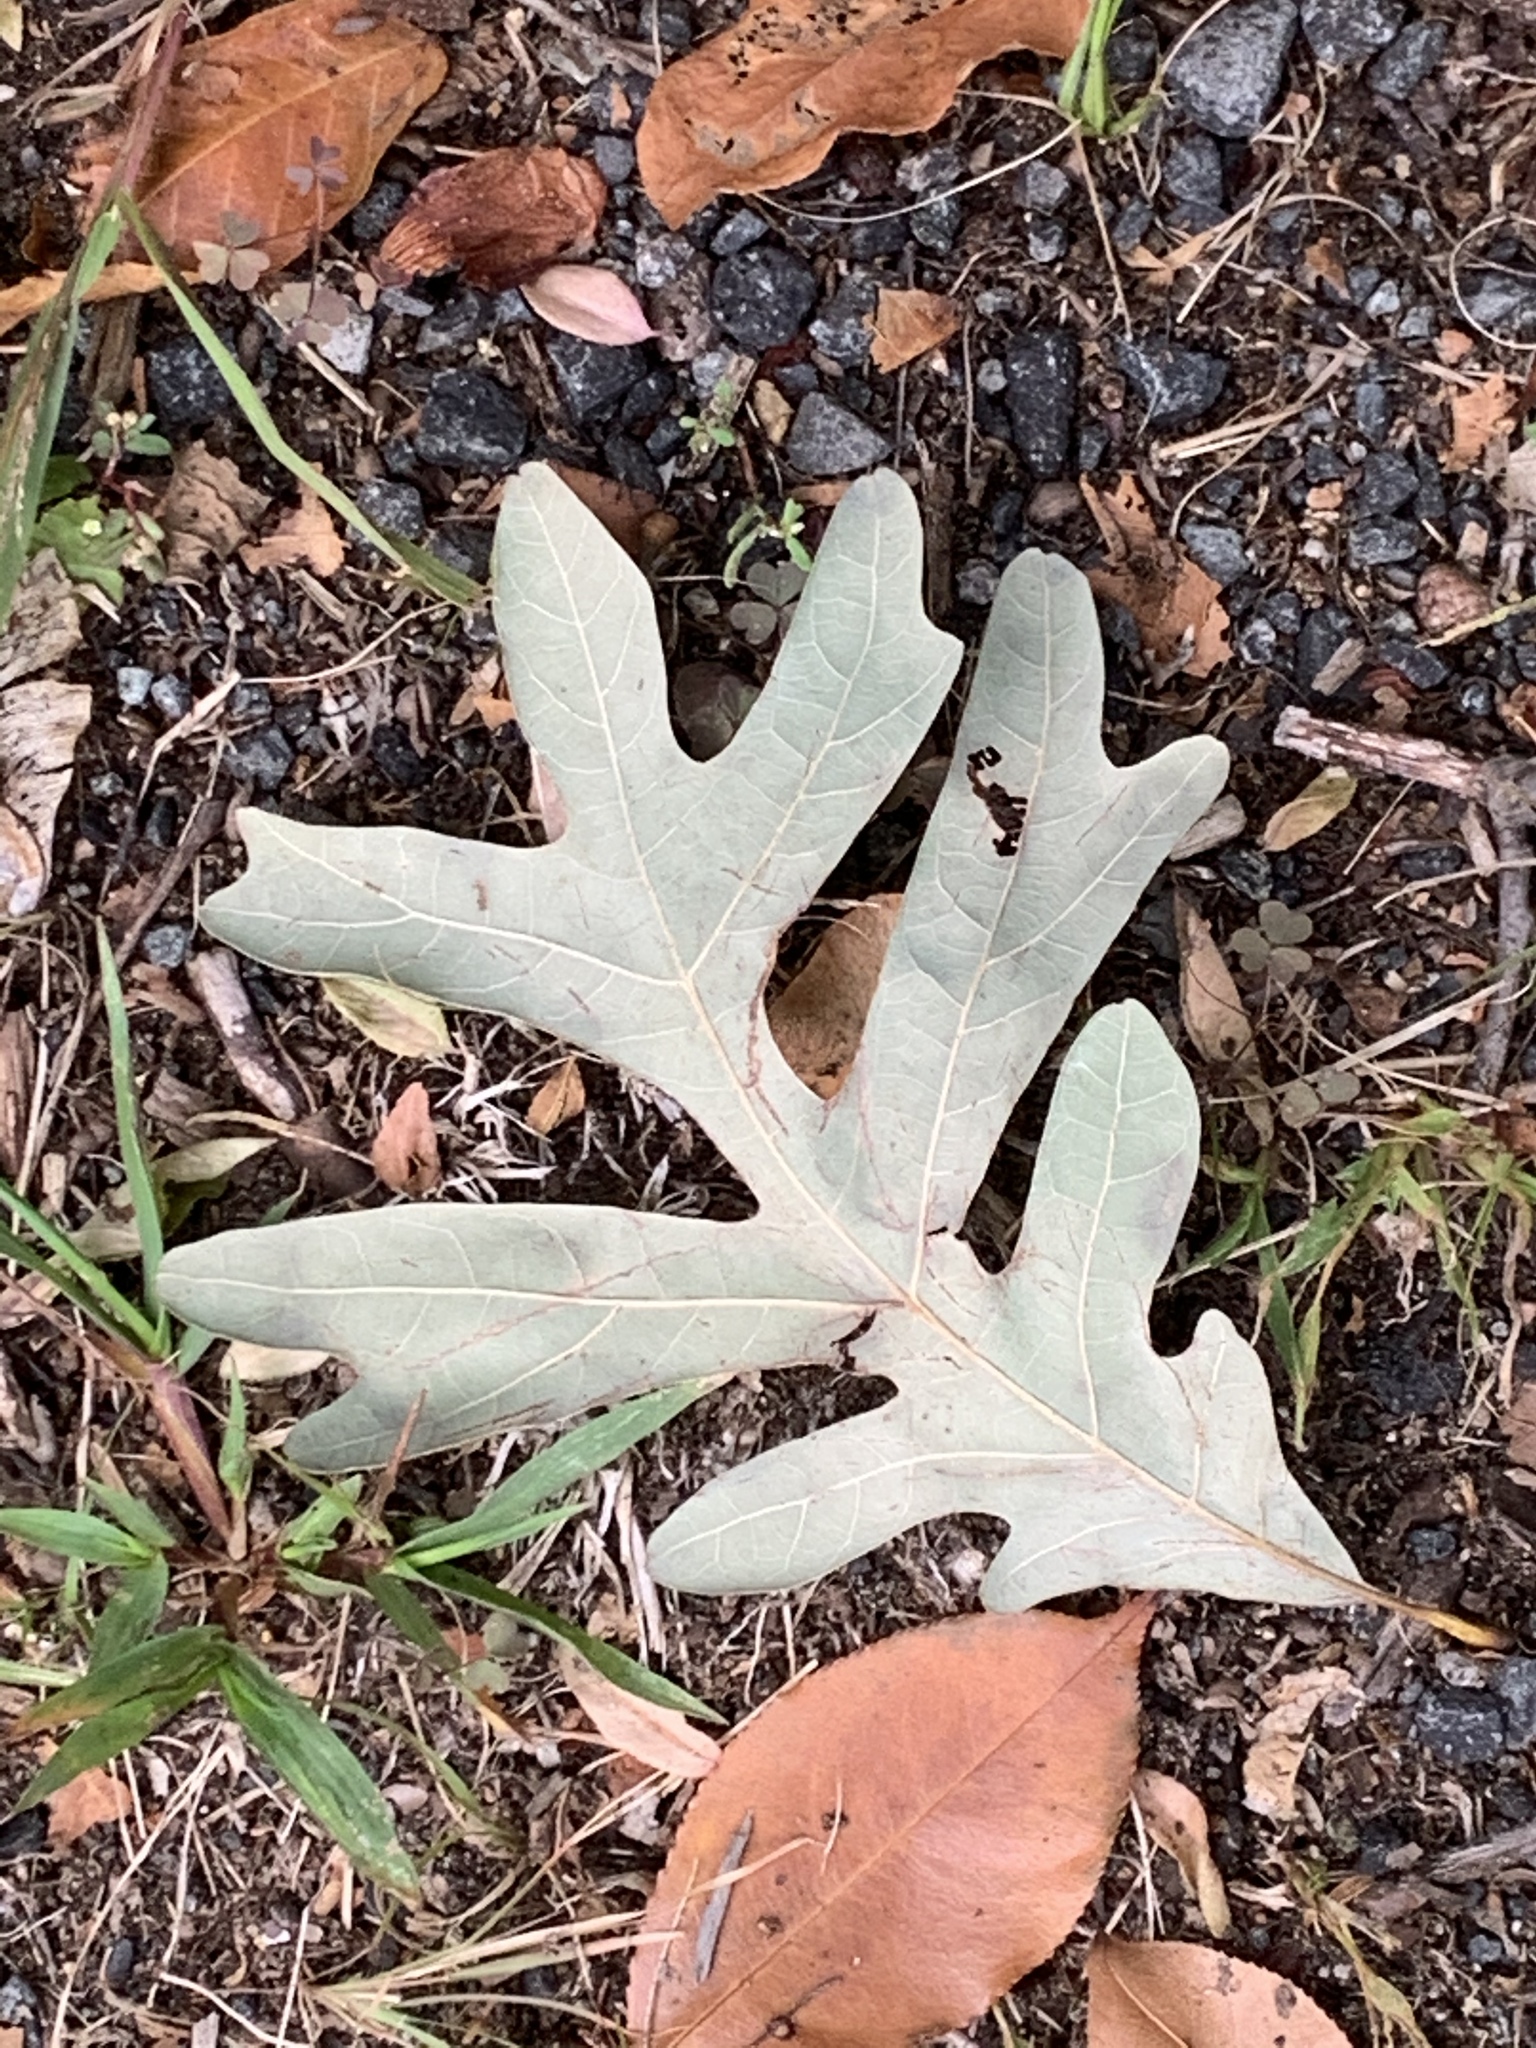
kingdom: Plantae
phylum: Tracheophyta
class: Magnoliopsida
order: Fagales
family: Fagaceae
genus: Quercus
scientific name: Quercus alba
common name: White oak
